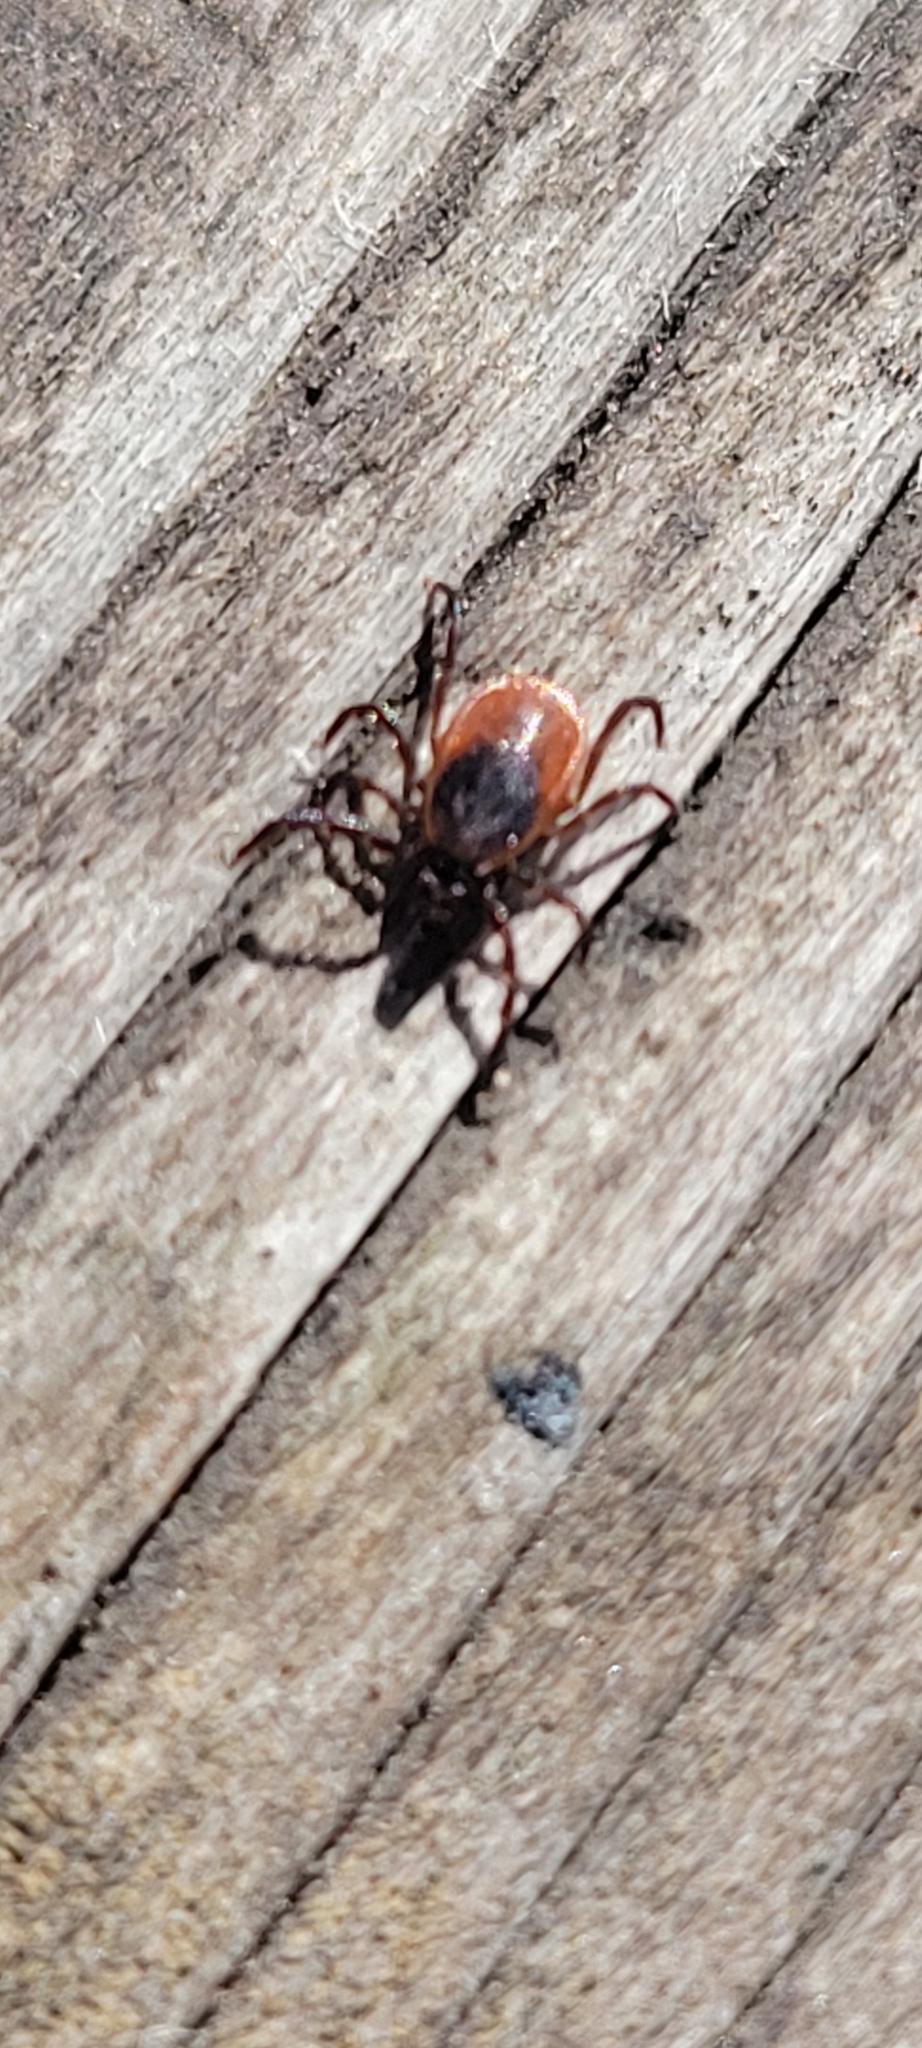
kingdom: Animalia
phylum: Arthropoda
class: Arachnida
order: Ixodida
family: Ixodidae
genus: Ixodes
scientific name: Ixodes scapularis
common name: Black legged tick
